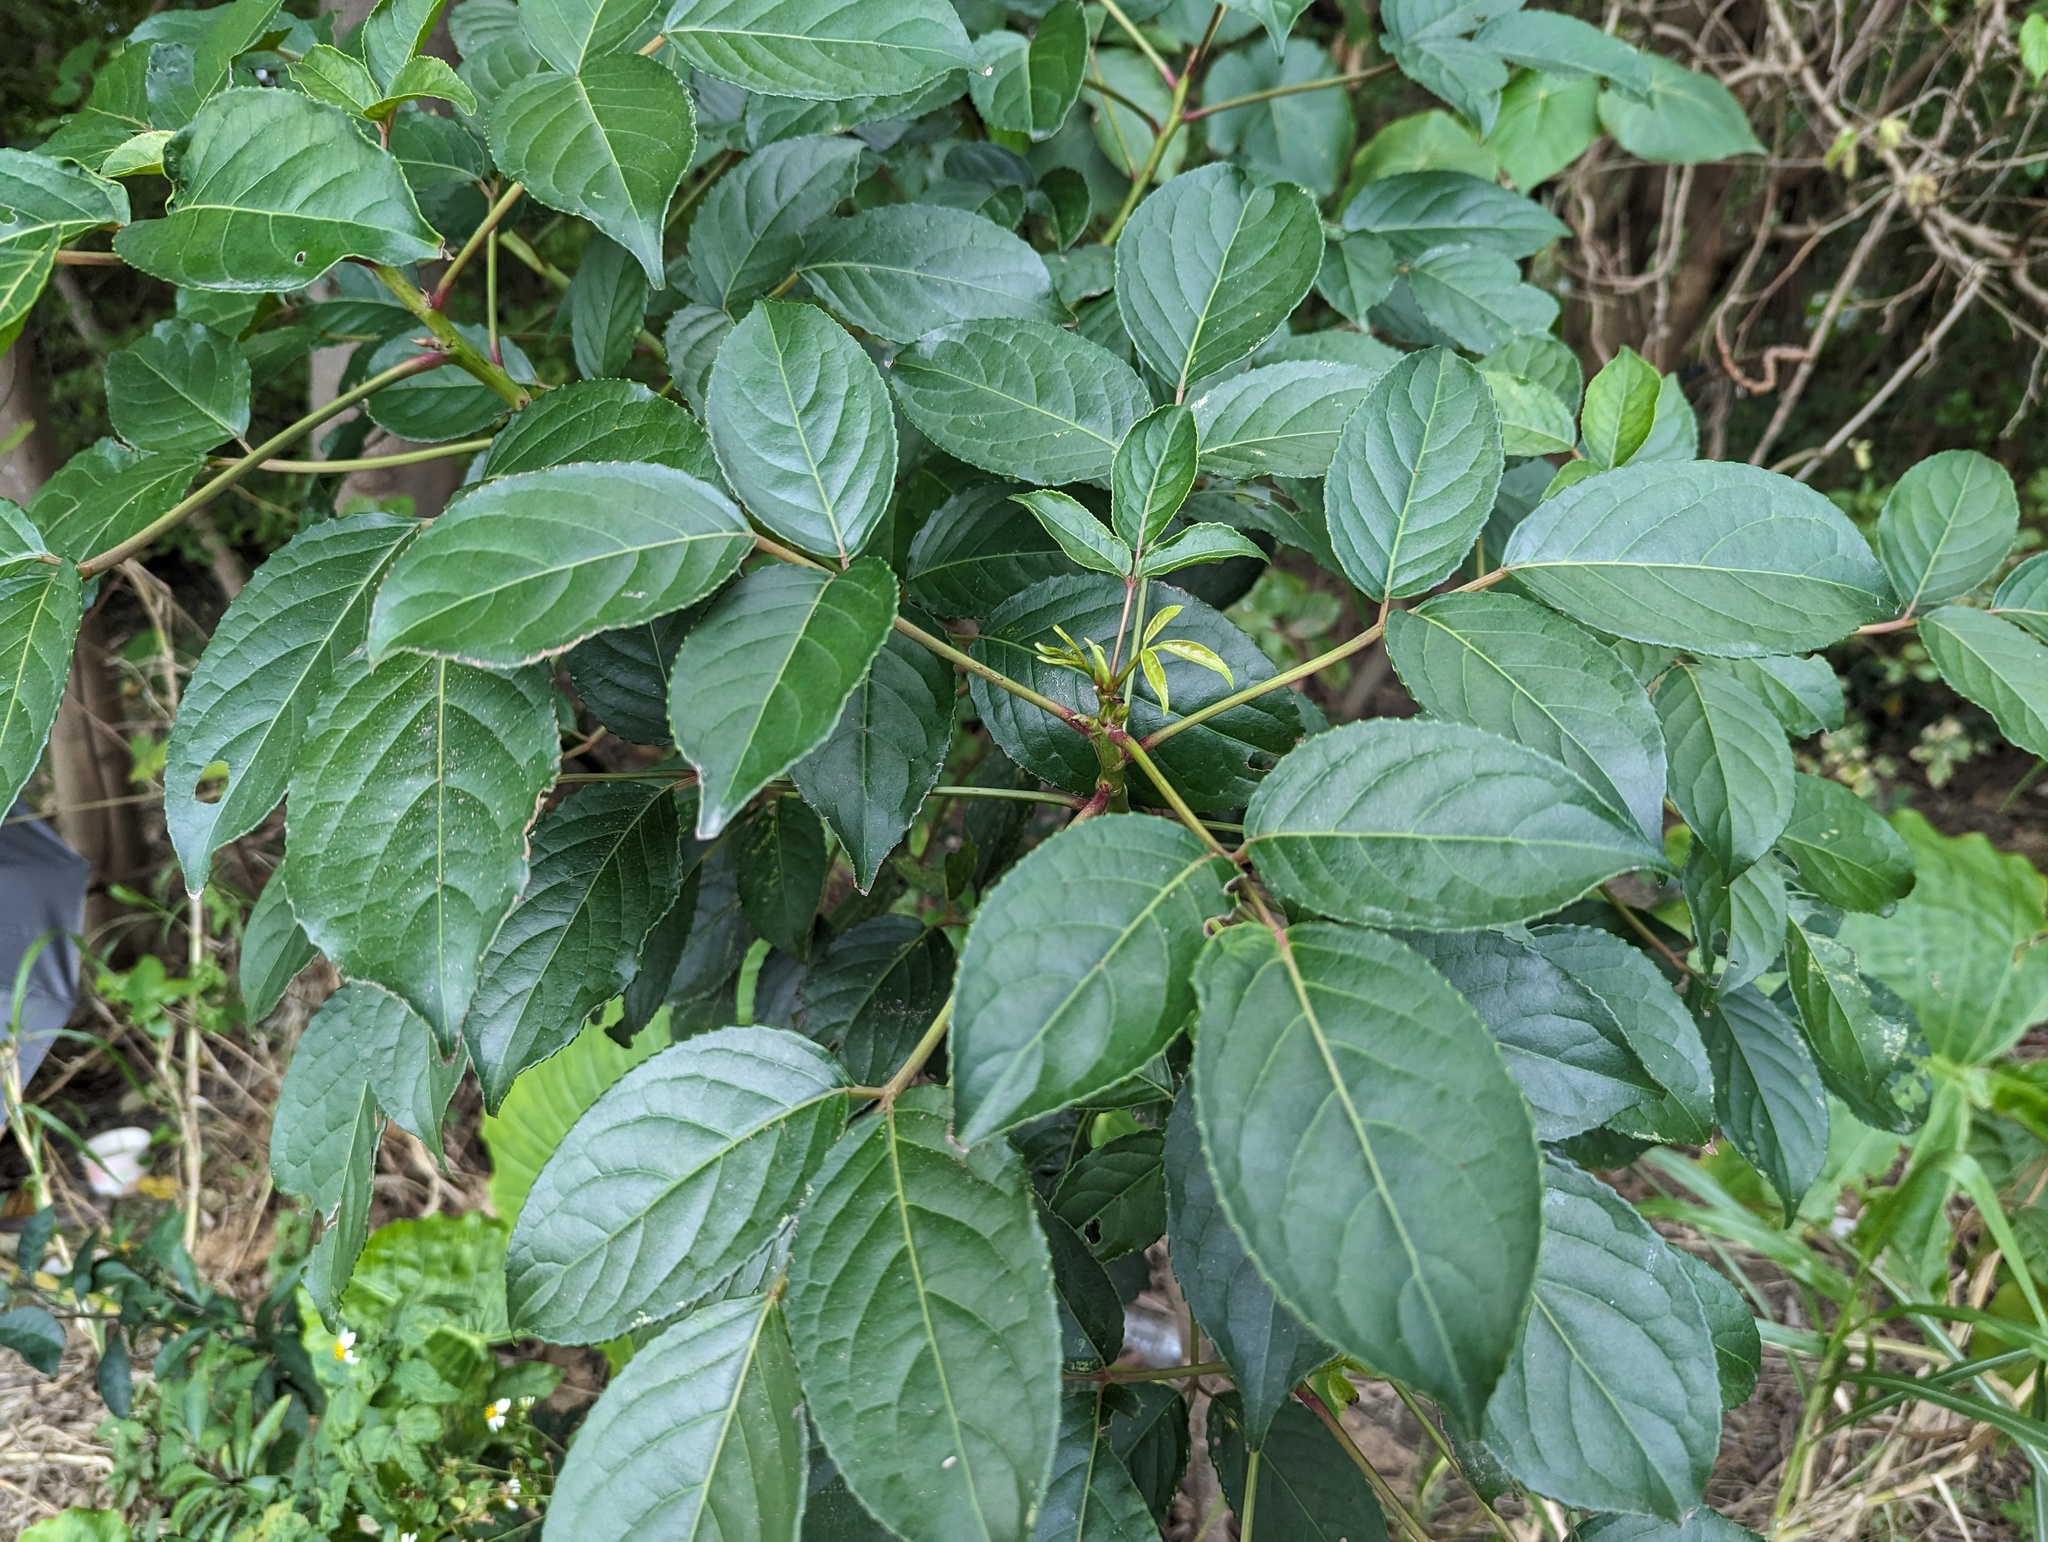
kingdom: Plantae
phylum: Tracheophyta
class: Magnoliopsida
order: Malpighiales
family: Phyllanthaceae
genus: Bischofia
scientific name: Bischofia javanica
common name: Javanese bishopwood
